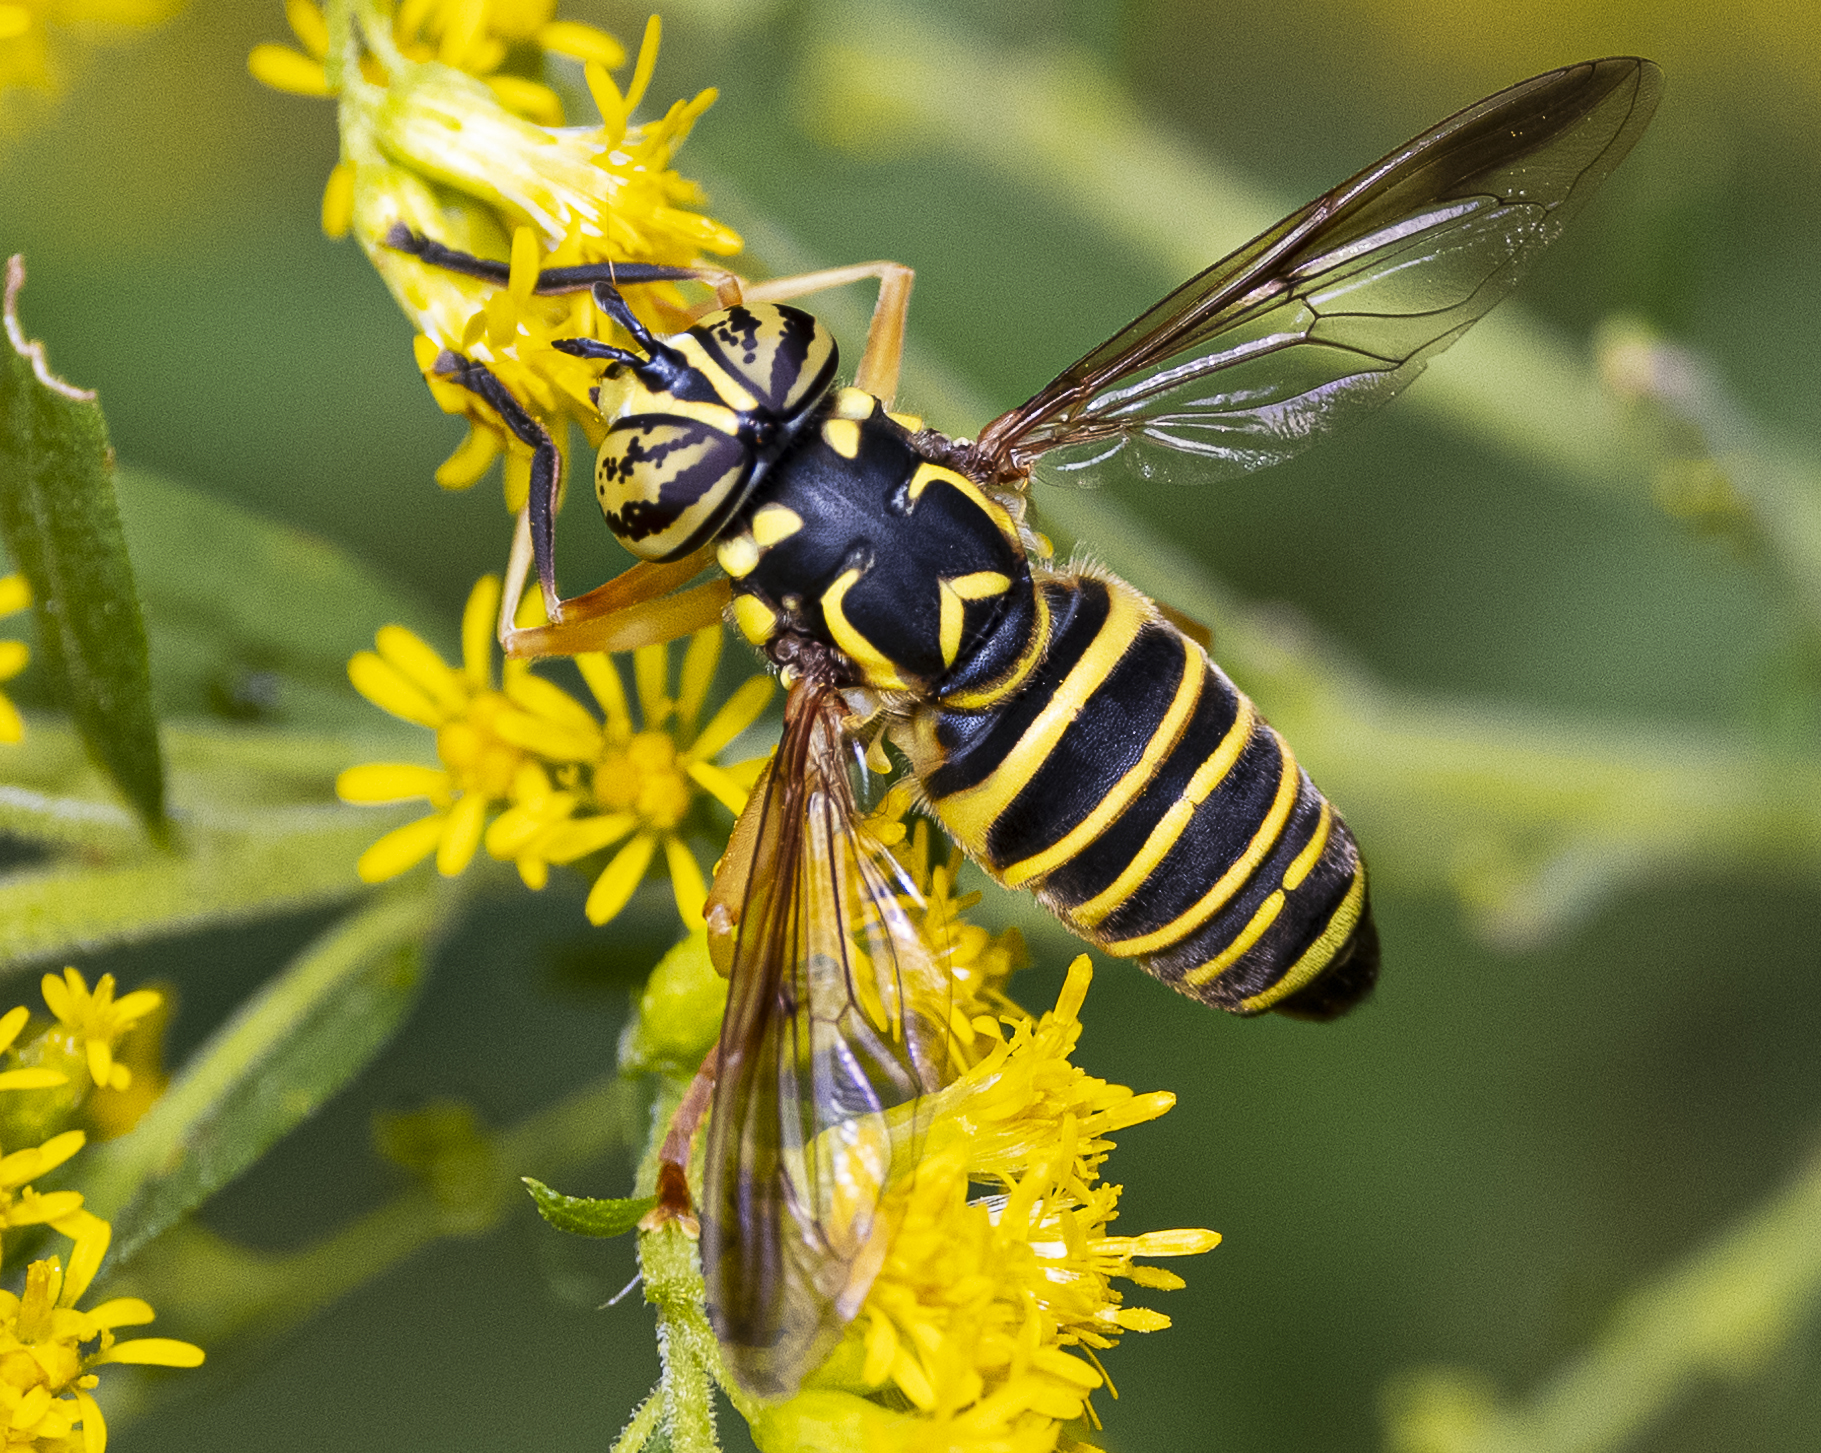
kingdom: Animalia
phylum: Arthropoda
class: Insecta
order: Diptera
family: Syrphidae
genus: Spilomyia
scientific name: Spilomyia longicornis
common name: Eastern hornet fly
